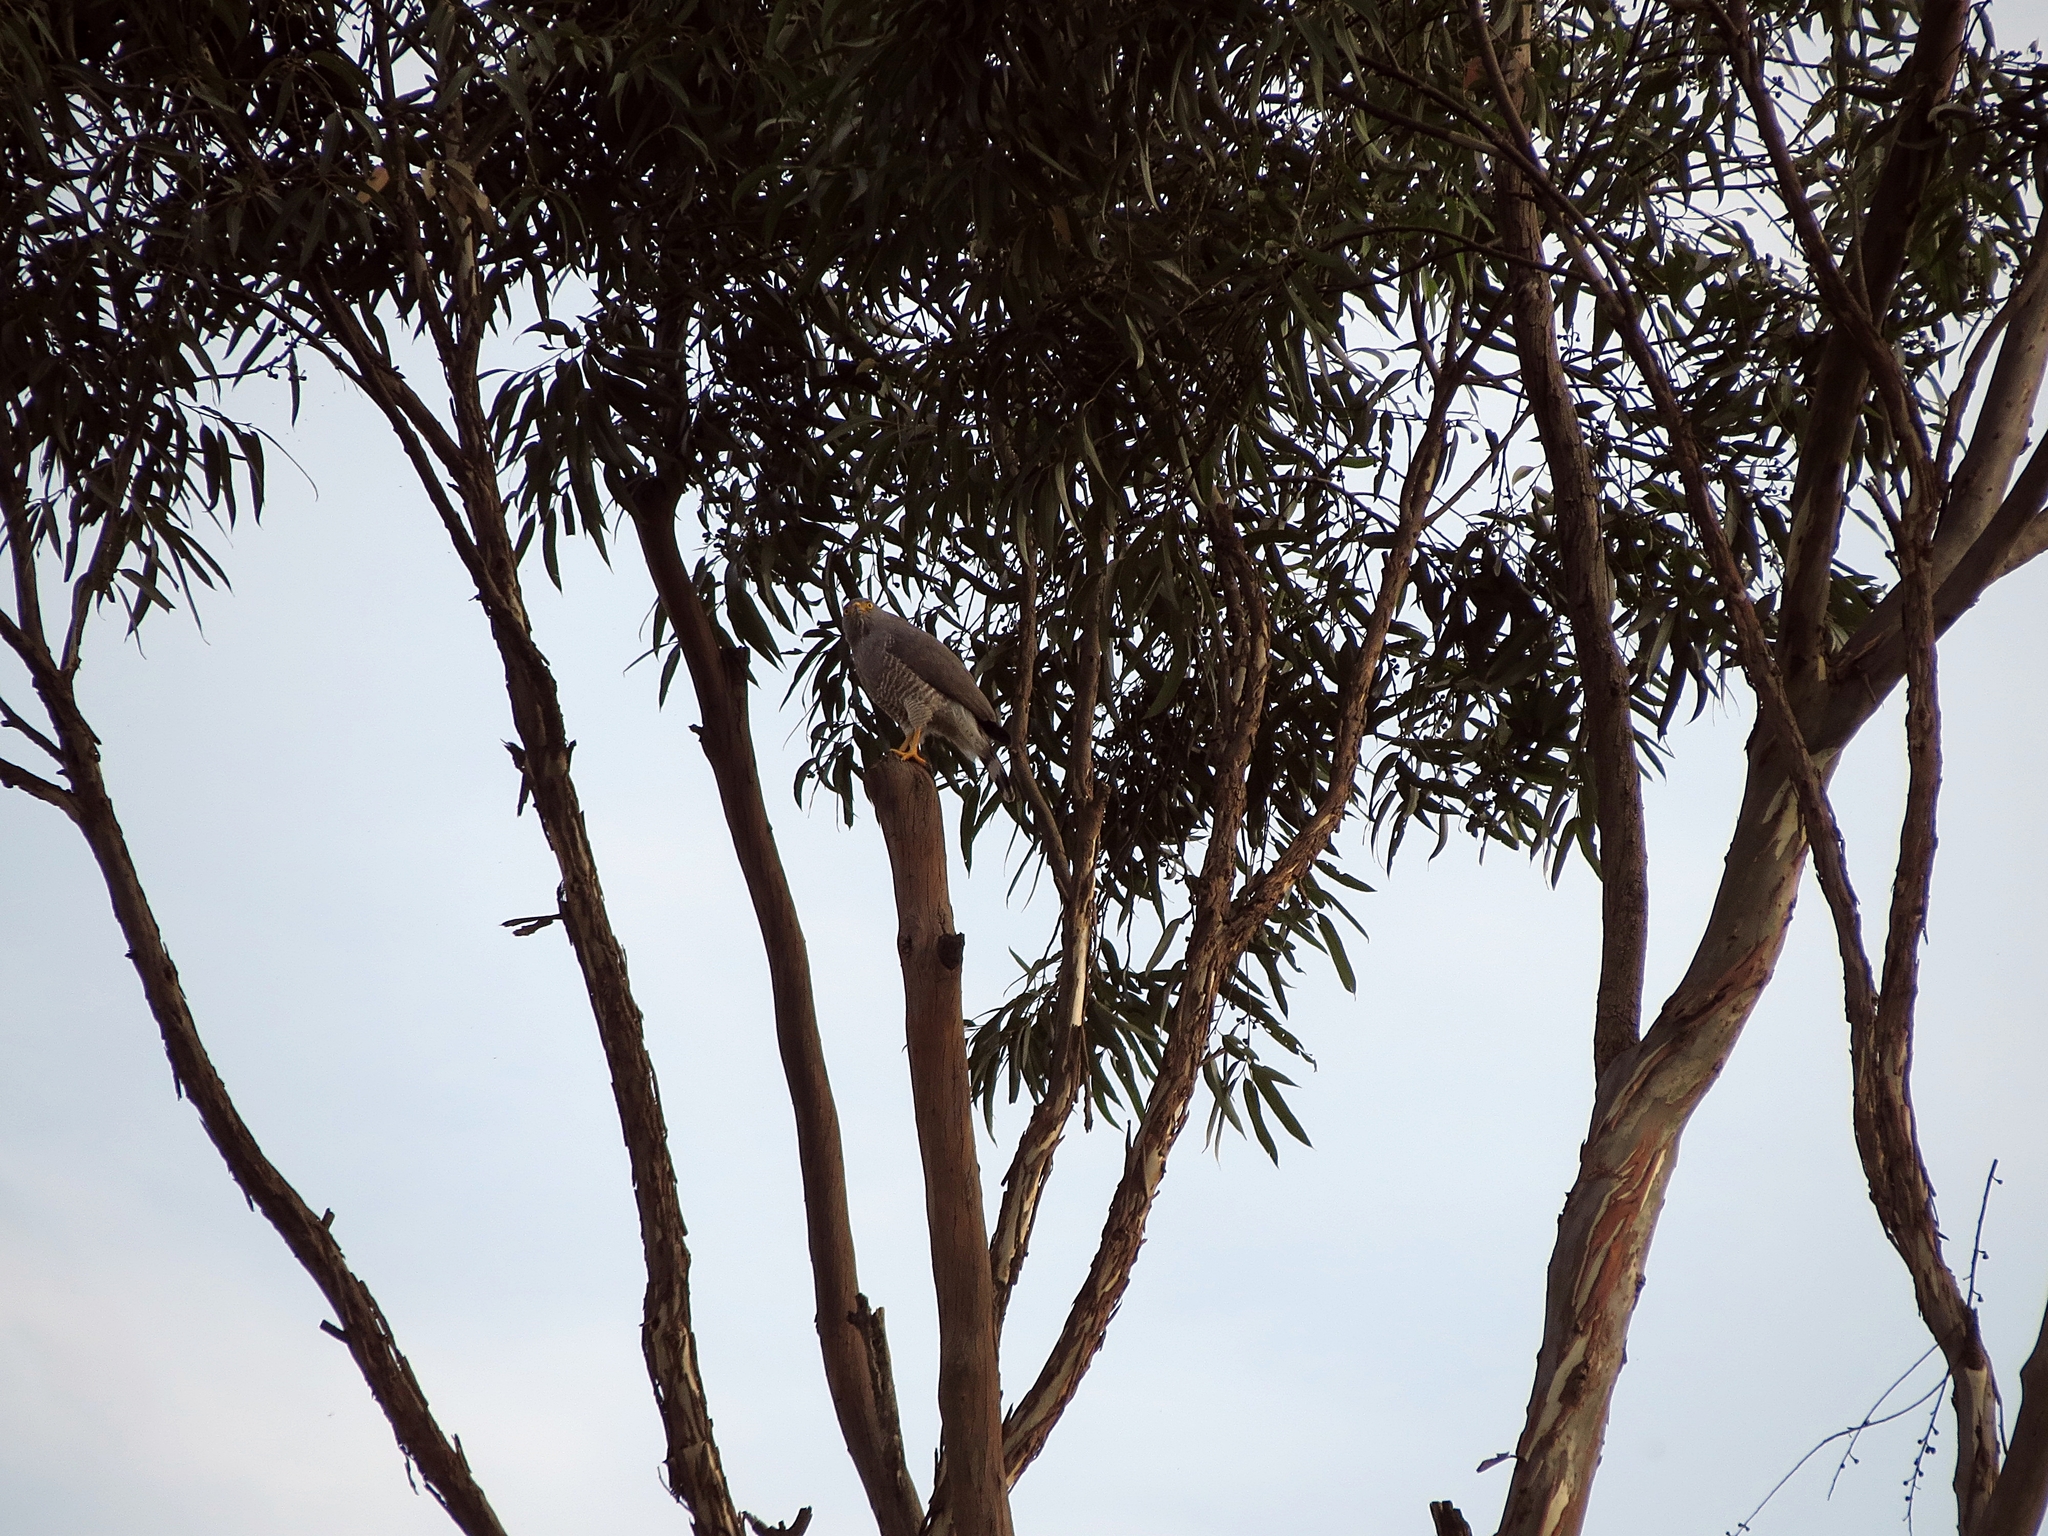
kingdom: Animalia
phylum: Chordata
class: Aves
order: Accipitriformes
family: Accipitridae
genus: Rupornis
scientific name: Rupornis magnirostris
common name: Roadside hawk
